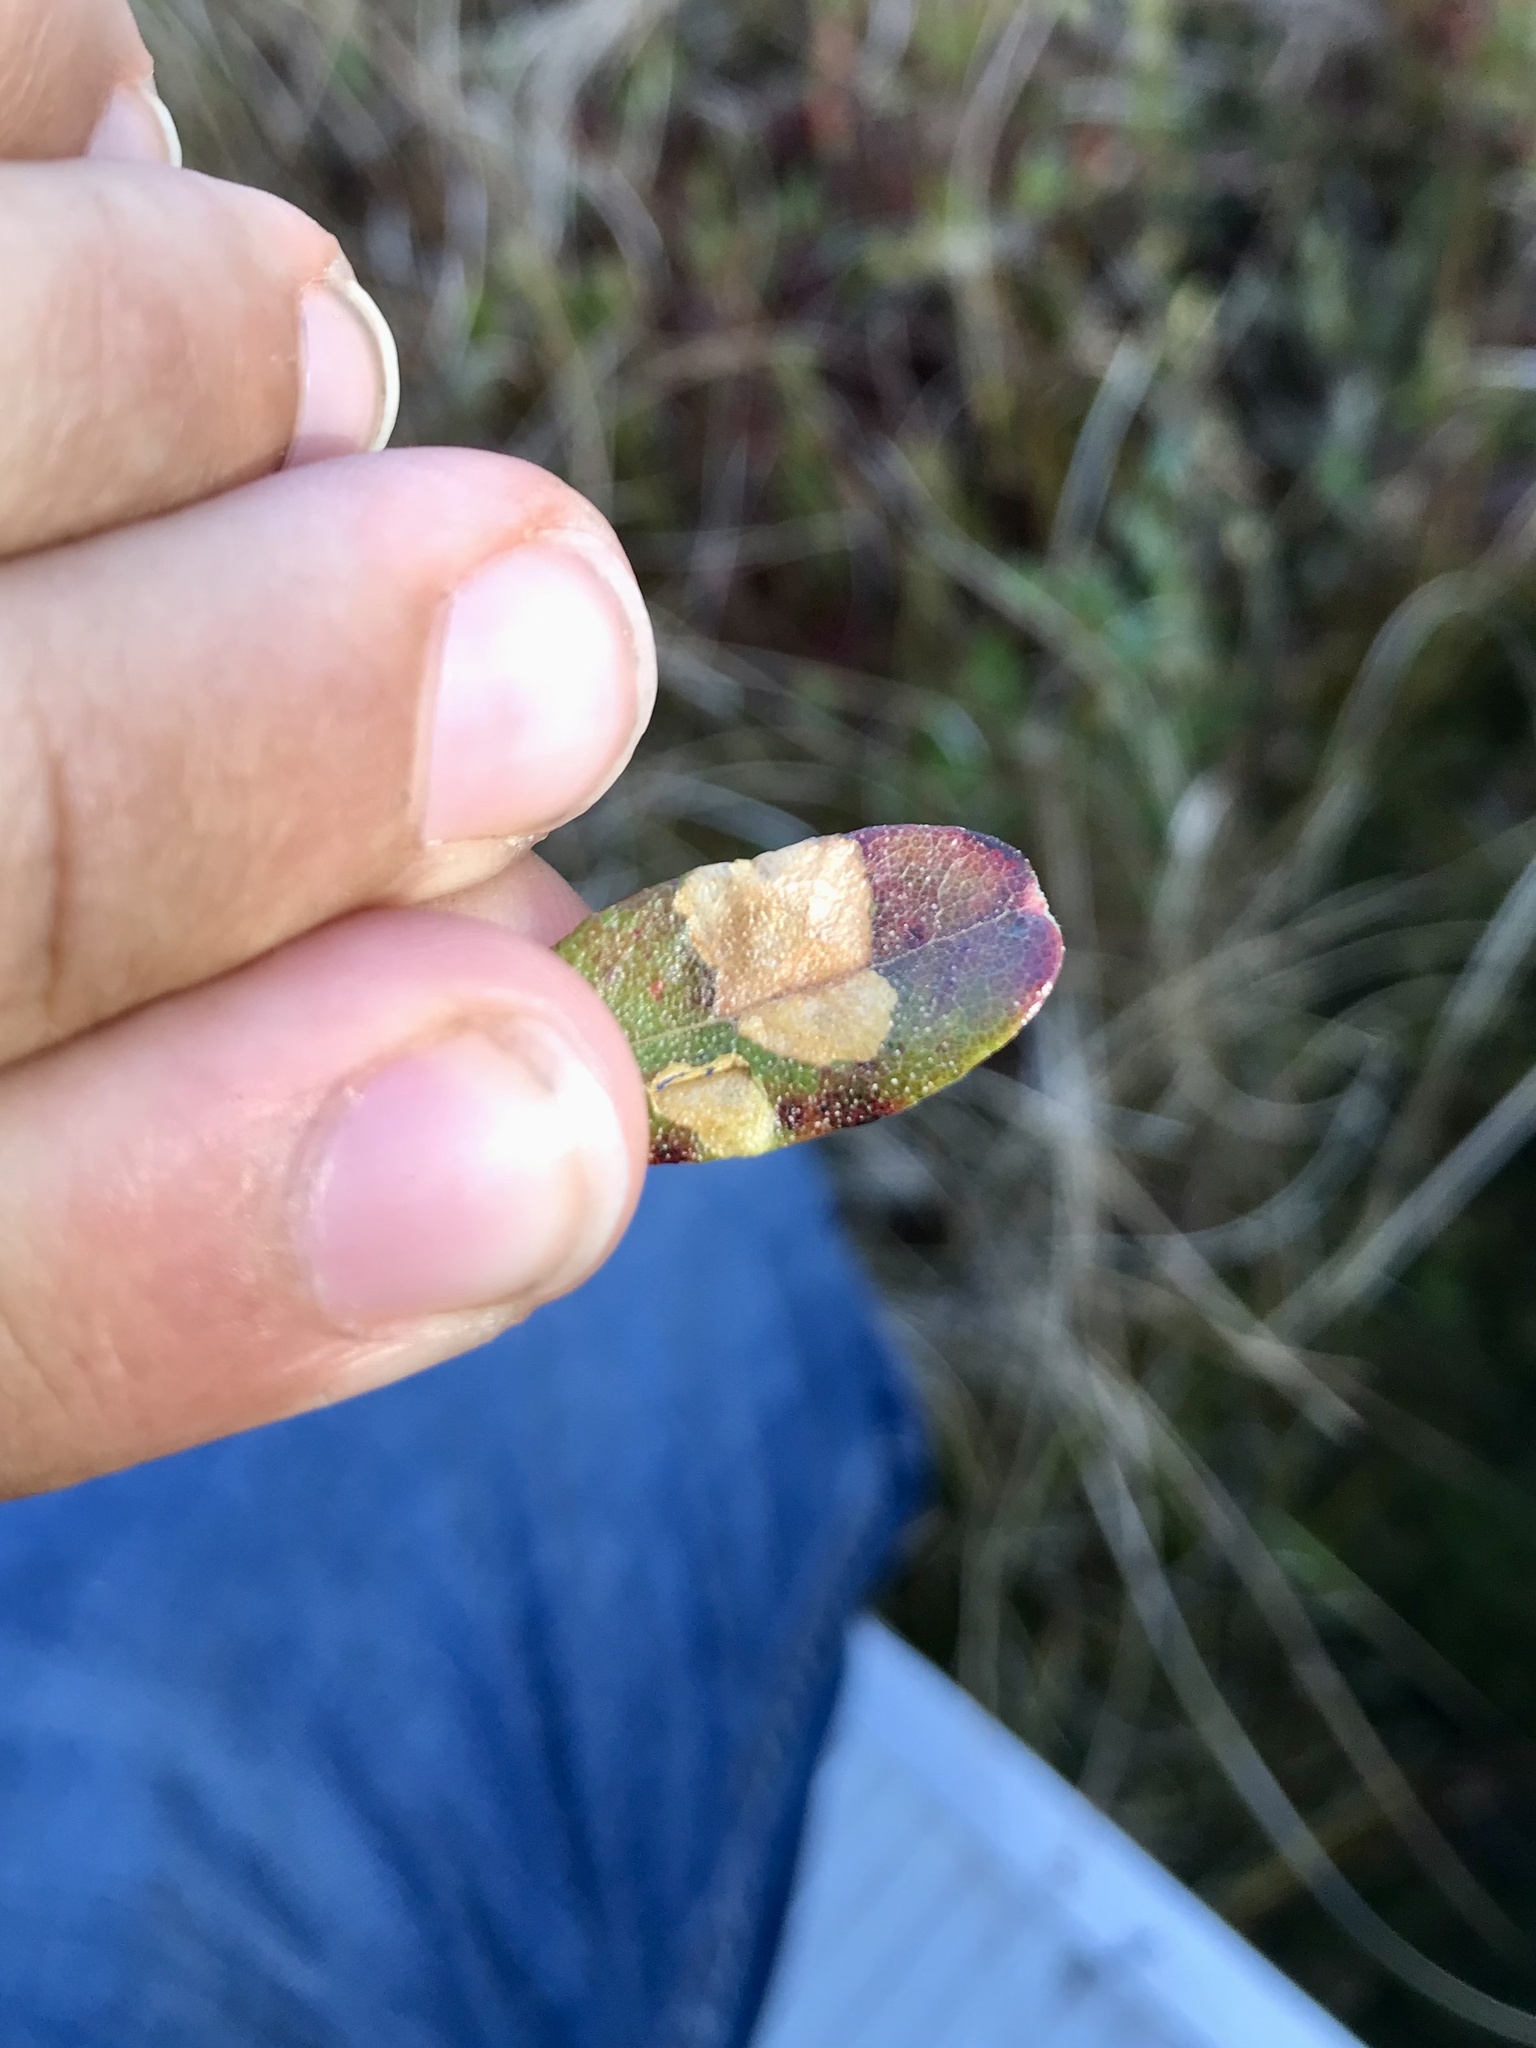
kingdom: Animalia
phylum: Arthropoda
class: Insecta
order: Lepidoptera
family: Coleophoridae
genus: Coleophora
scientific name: Coleophora ledi
